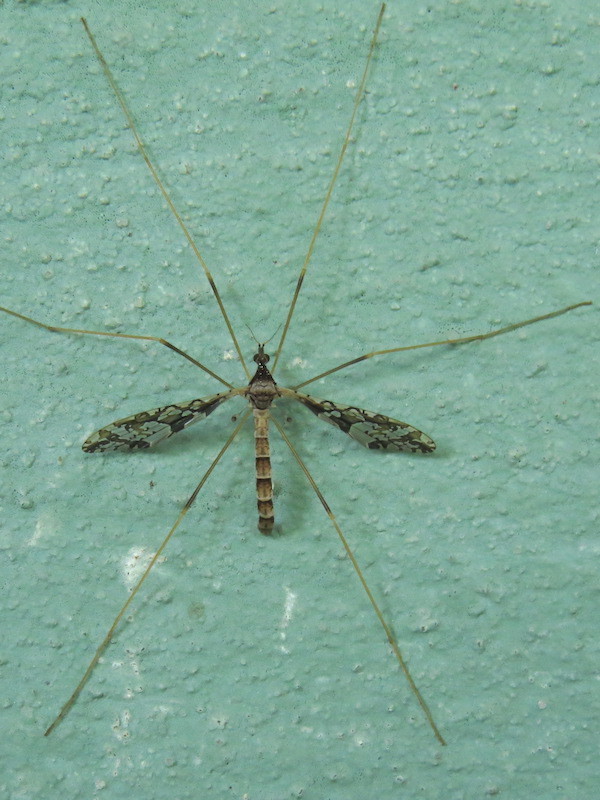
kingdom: Animalia
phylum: Arthropoda
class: Insecta
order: Diptera
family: Limoniidae
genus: Epiphragma
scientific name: Epiphragma solatrix
